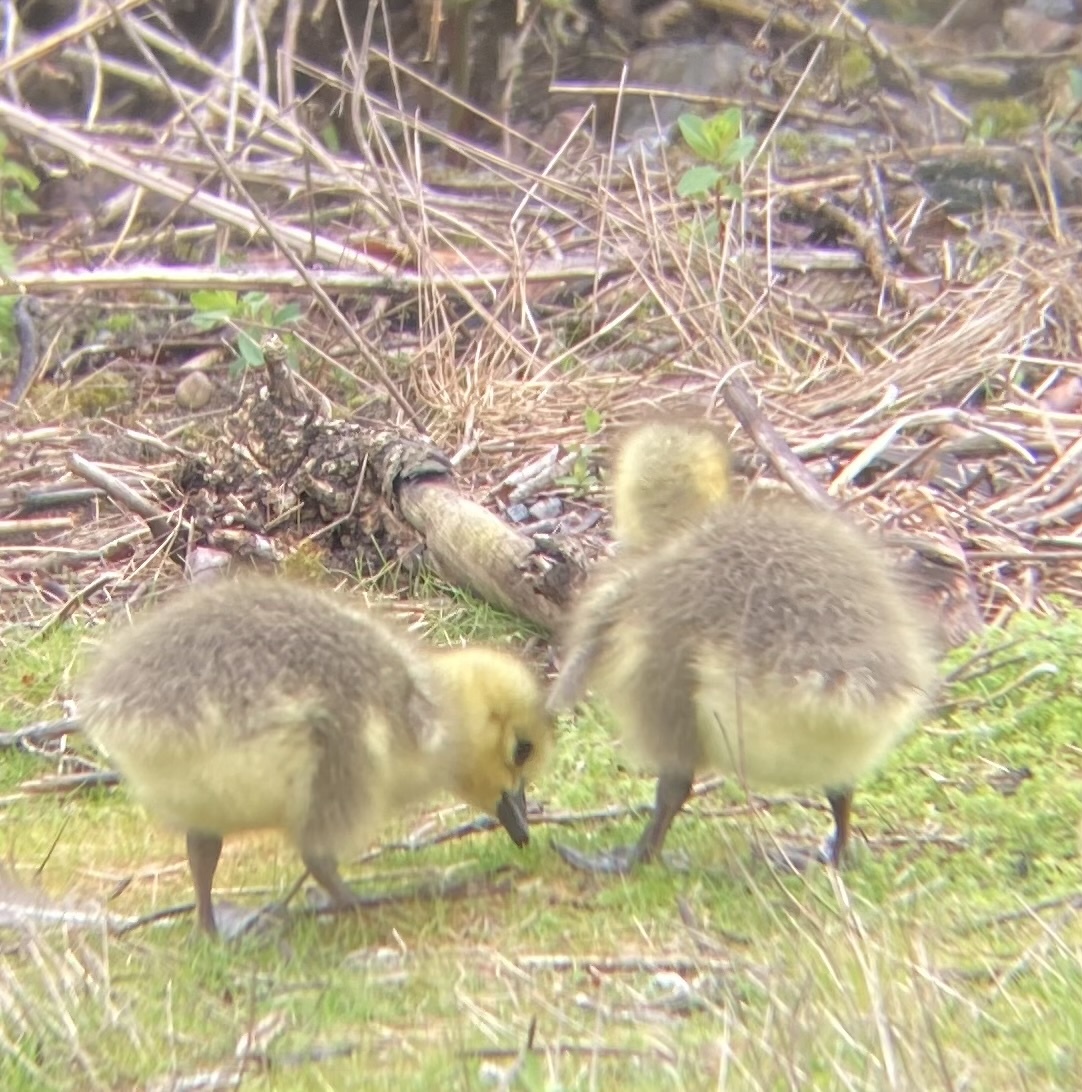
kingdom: Animalia
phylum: Chordata
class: Aves
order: Anseriformes
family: Anatidae
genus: Branta
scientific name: Branta canadensis
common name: Canada goose
